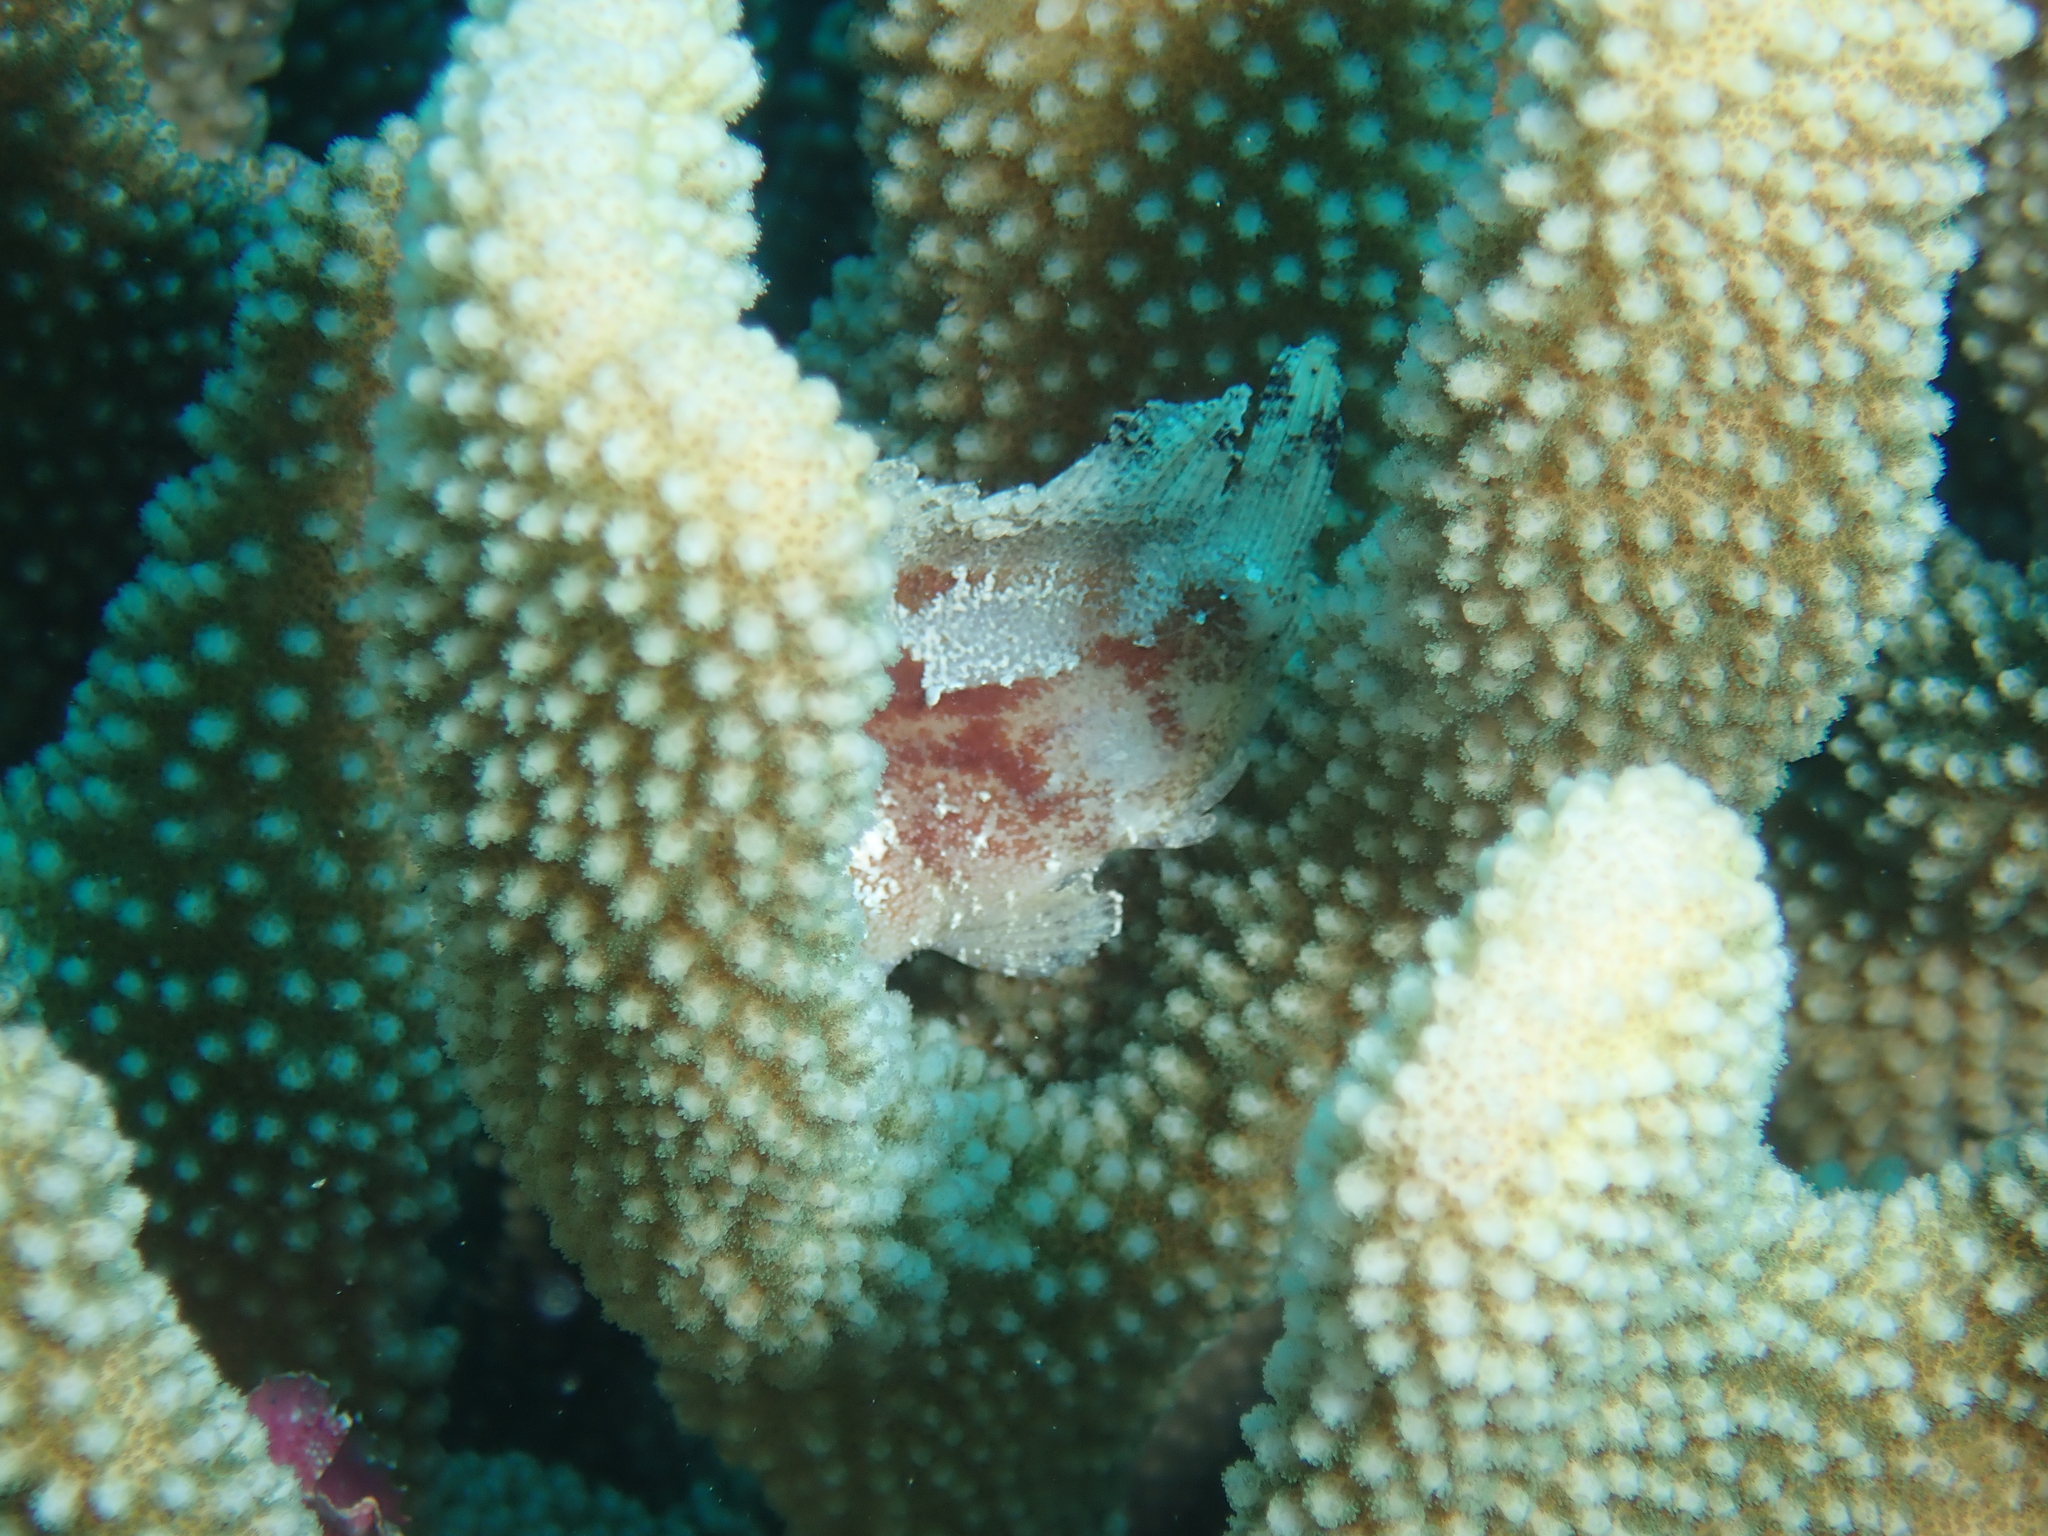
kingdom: Animalia
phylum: Chordata
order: Scorpaeniformes
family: Scorpaenidae
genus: Taenianotus
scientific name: Taenianotus triacanthus
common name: Leaf scorpionfish
